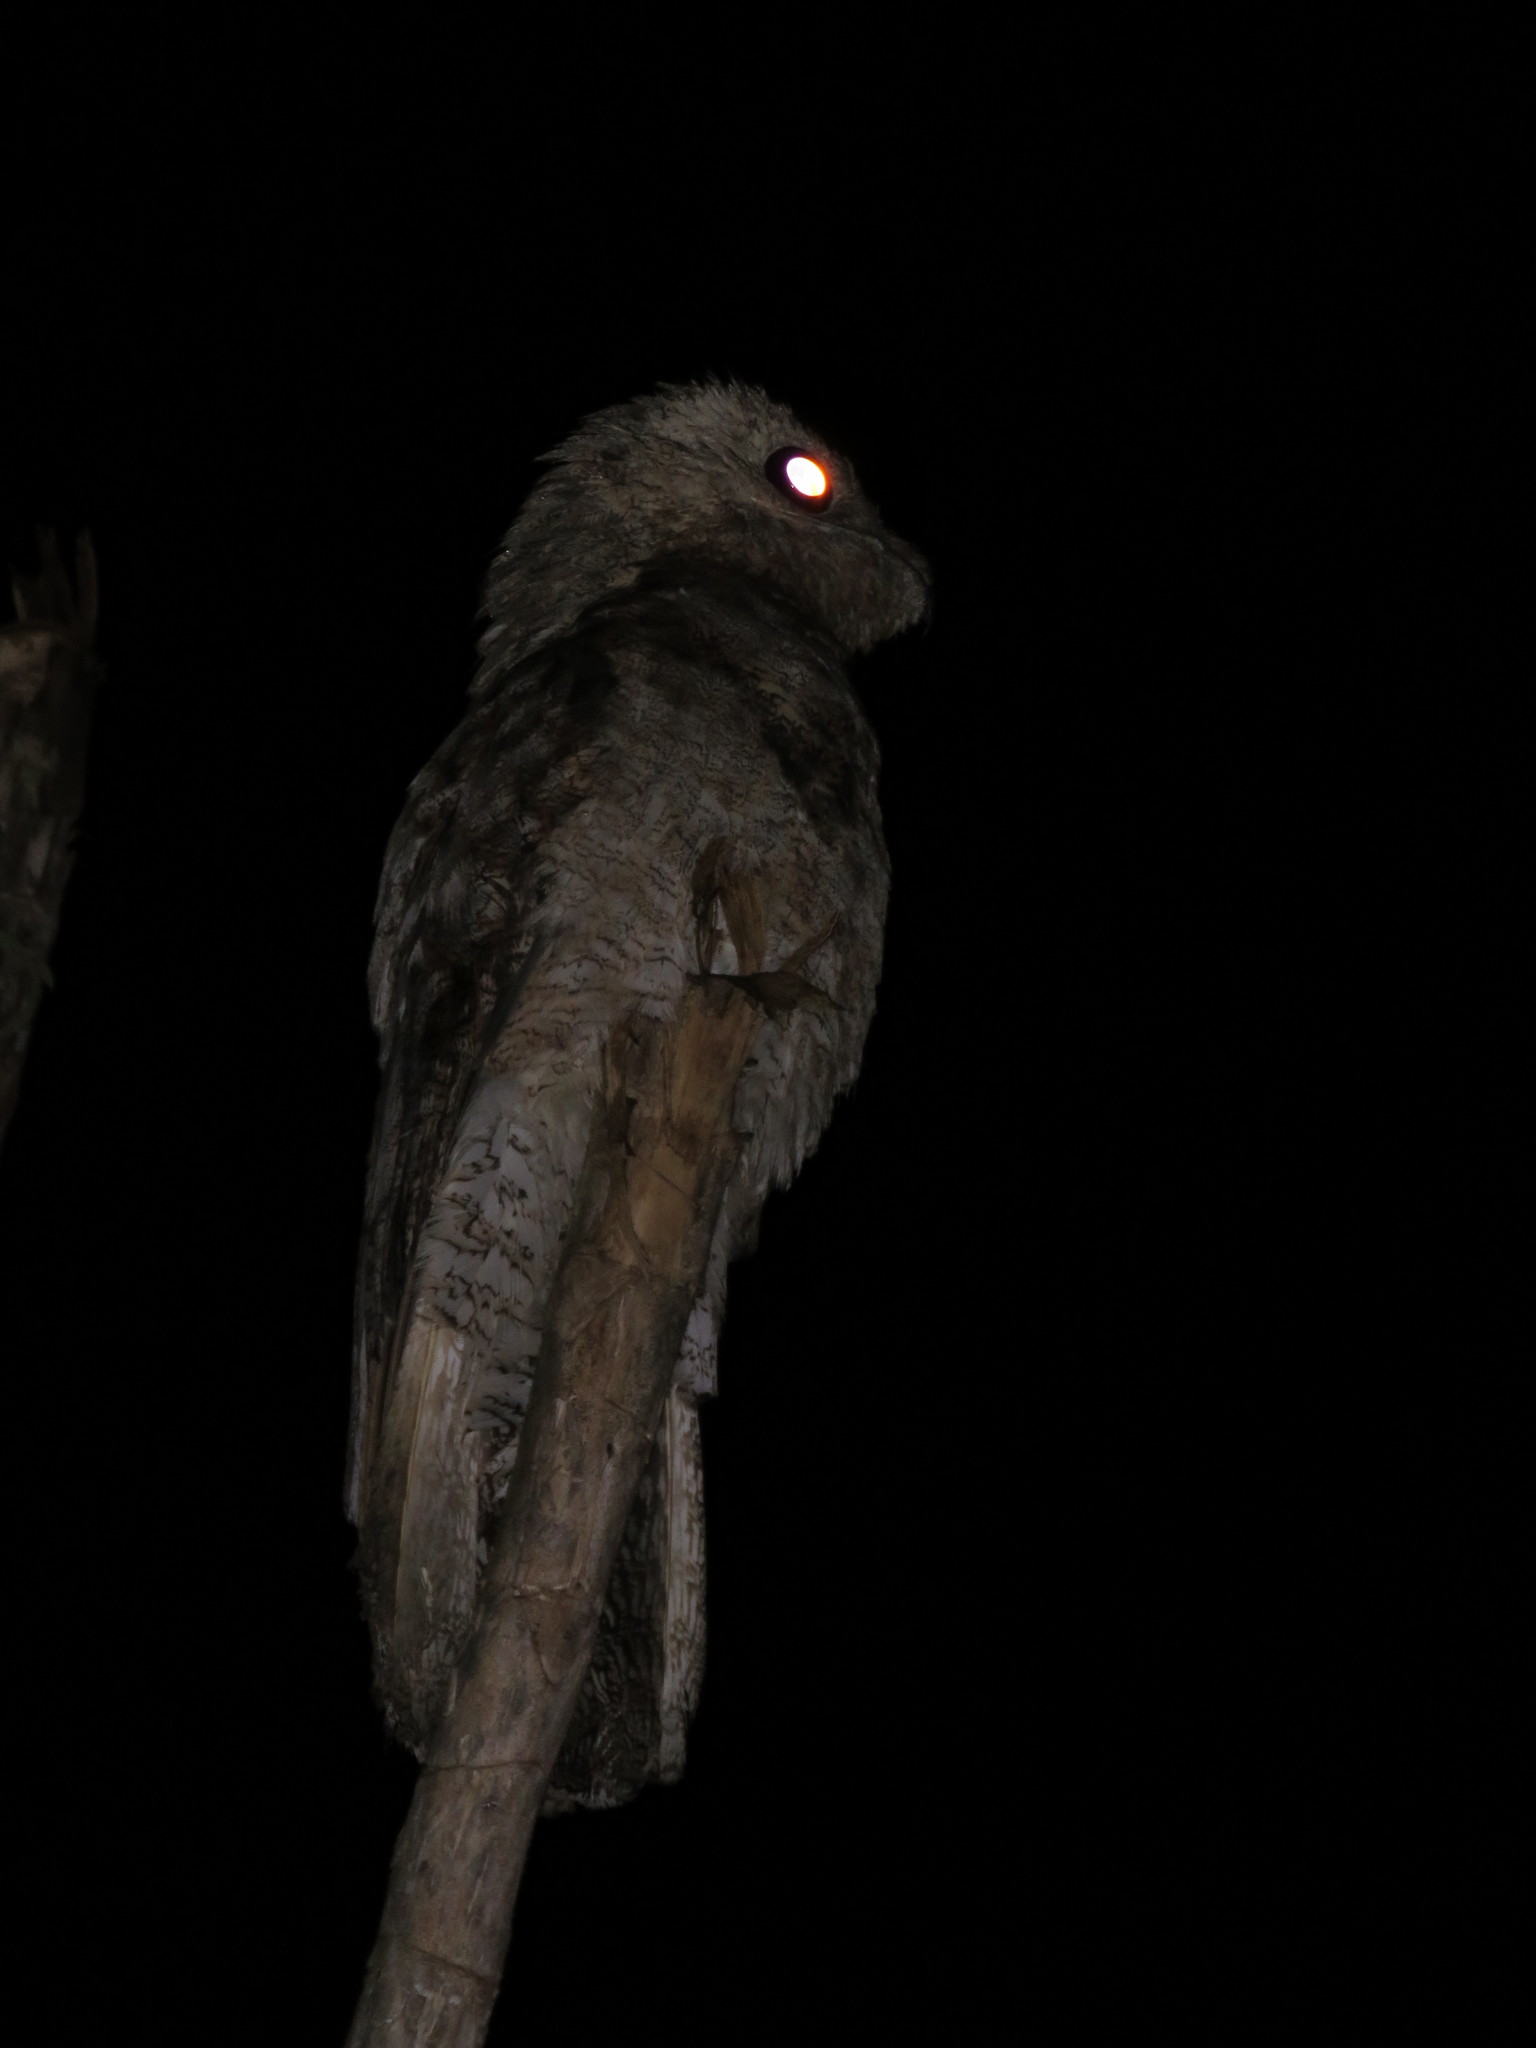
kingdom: Animalia
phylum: Chordata
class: Aves
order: Nyctibiiformes
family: Nyctibiidae
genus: Nyctibius
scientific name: Nyctibius griseus
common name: Common potoo
